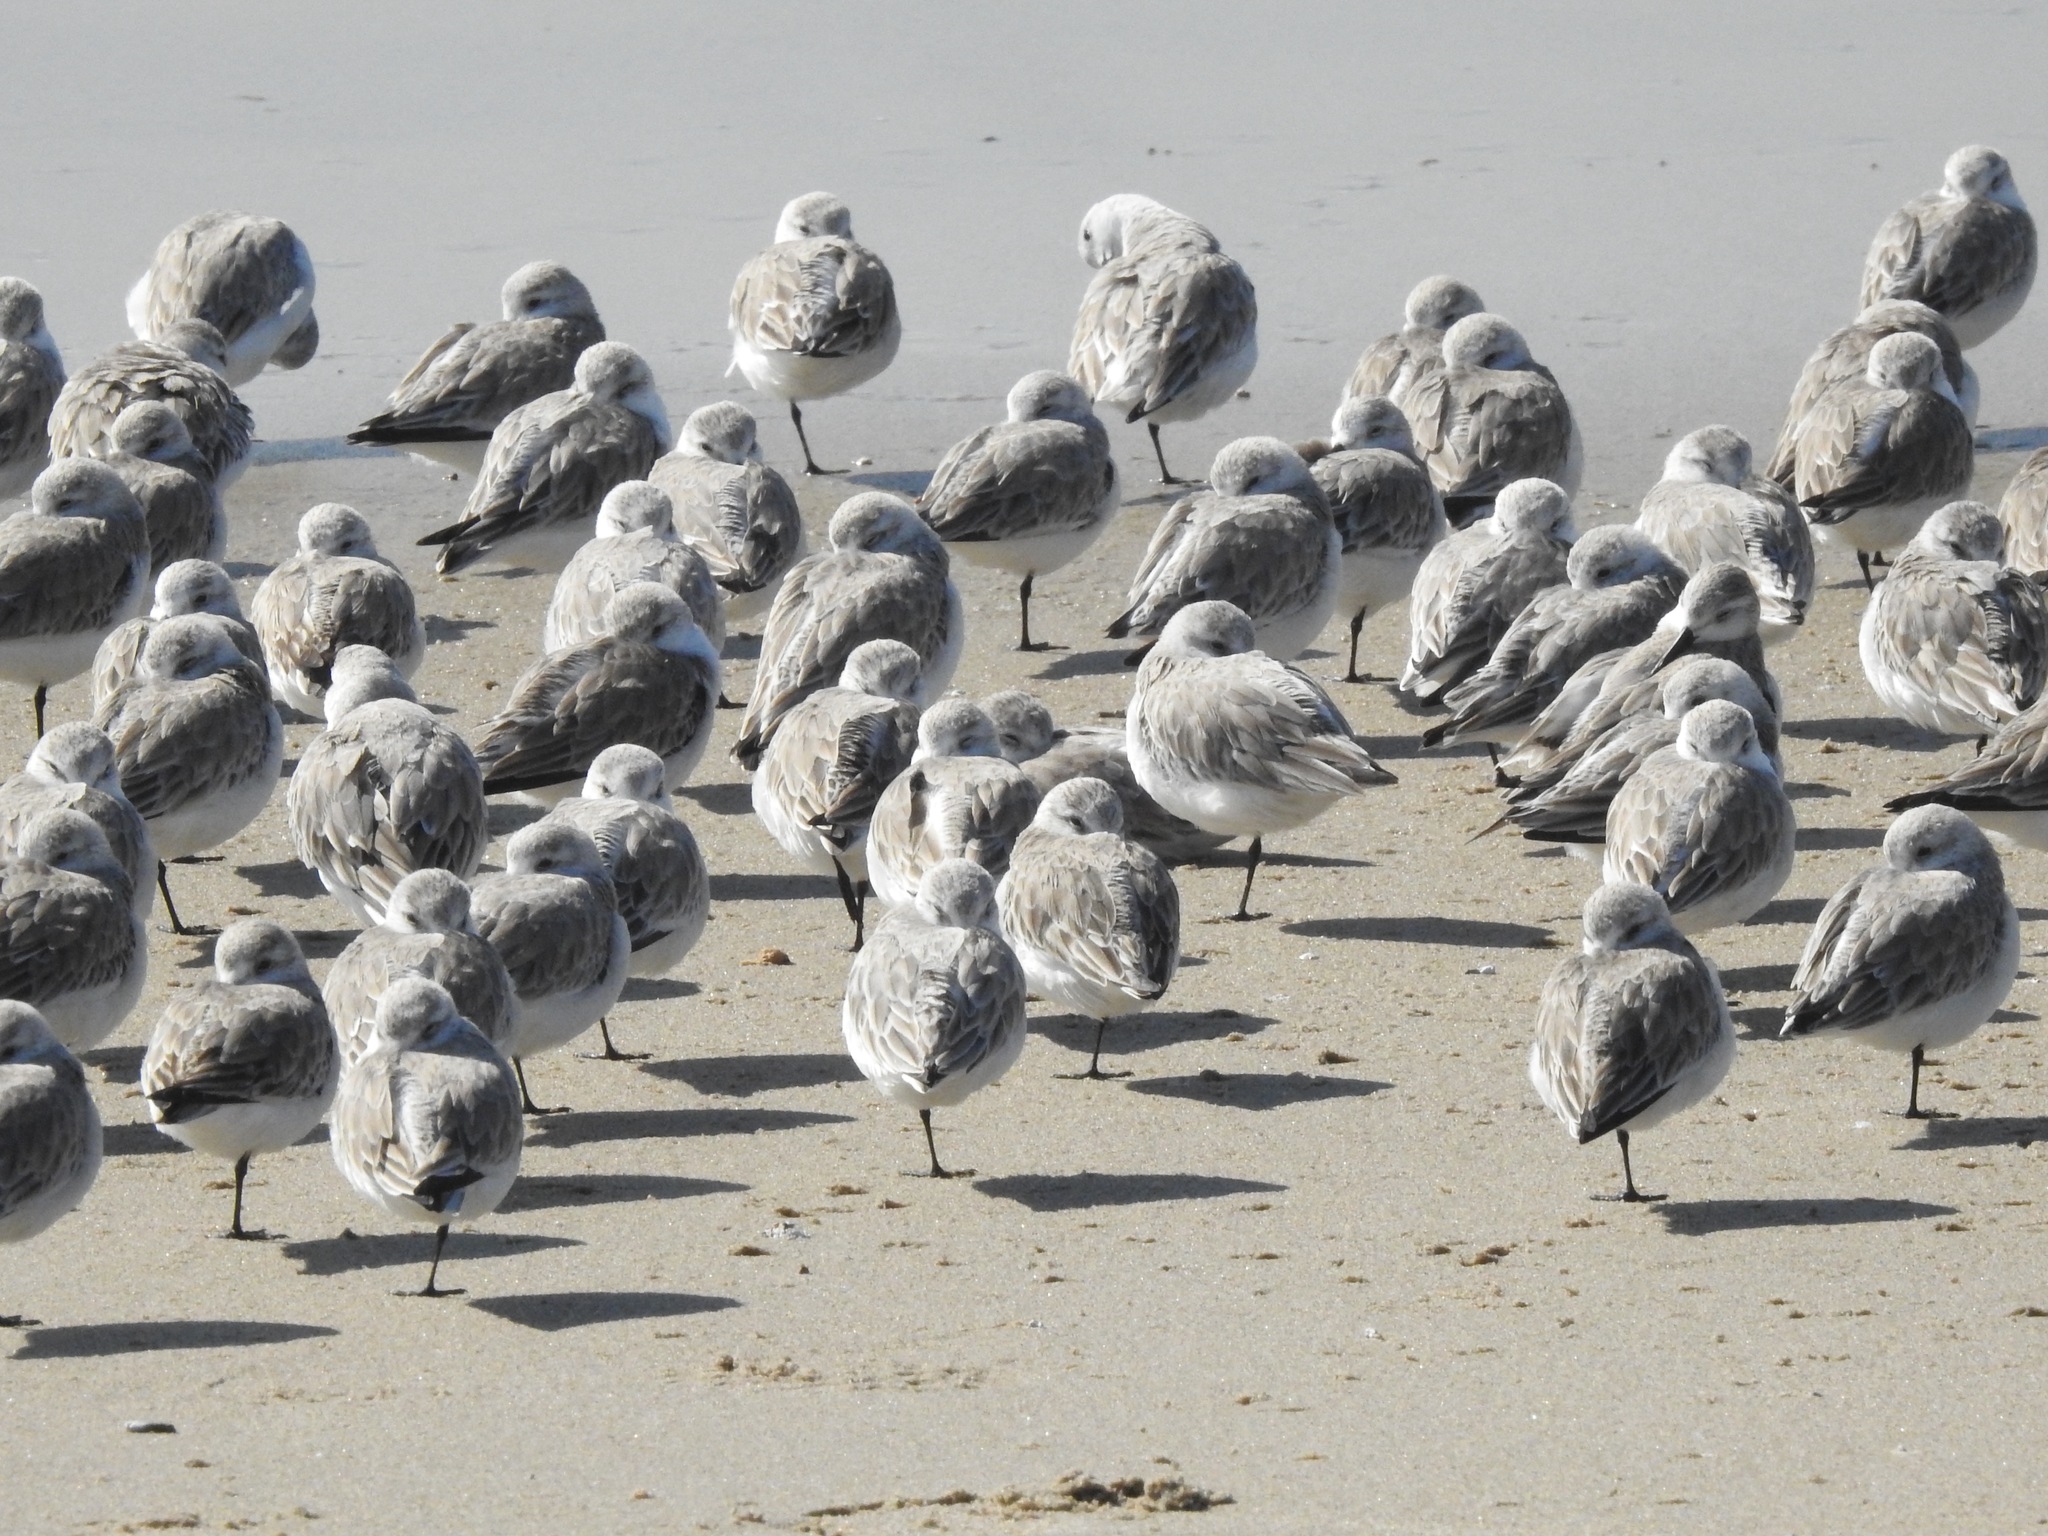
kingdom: Animalia
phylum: Chordata
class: Aves
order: Charadriiformes
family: Scolopacidae
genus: Calidris
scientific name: Calidris alba
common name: Sanderling
